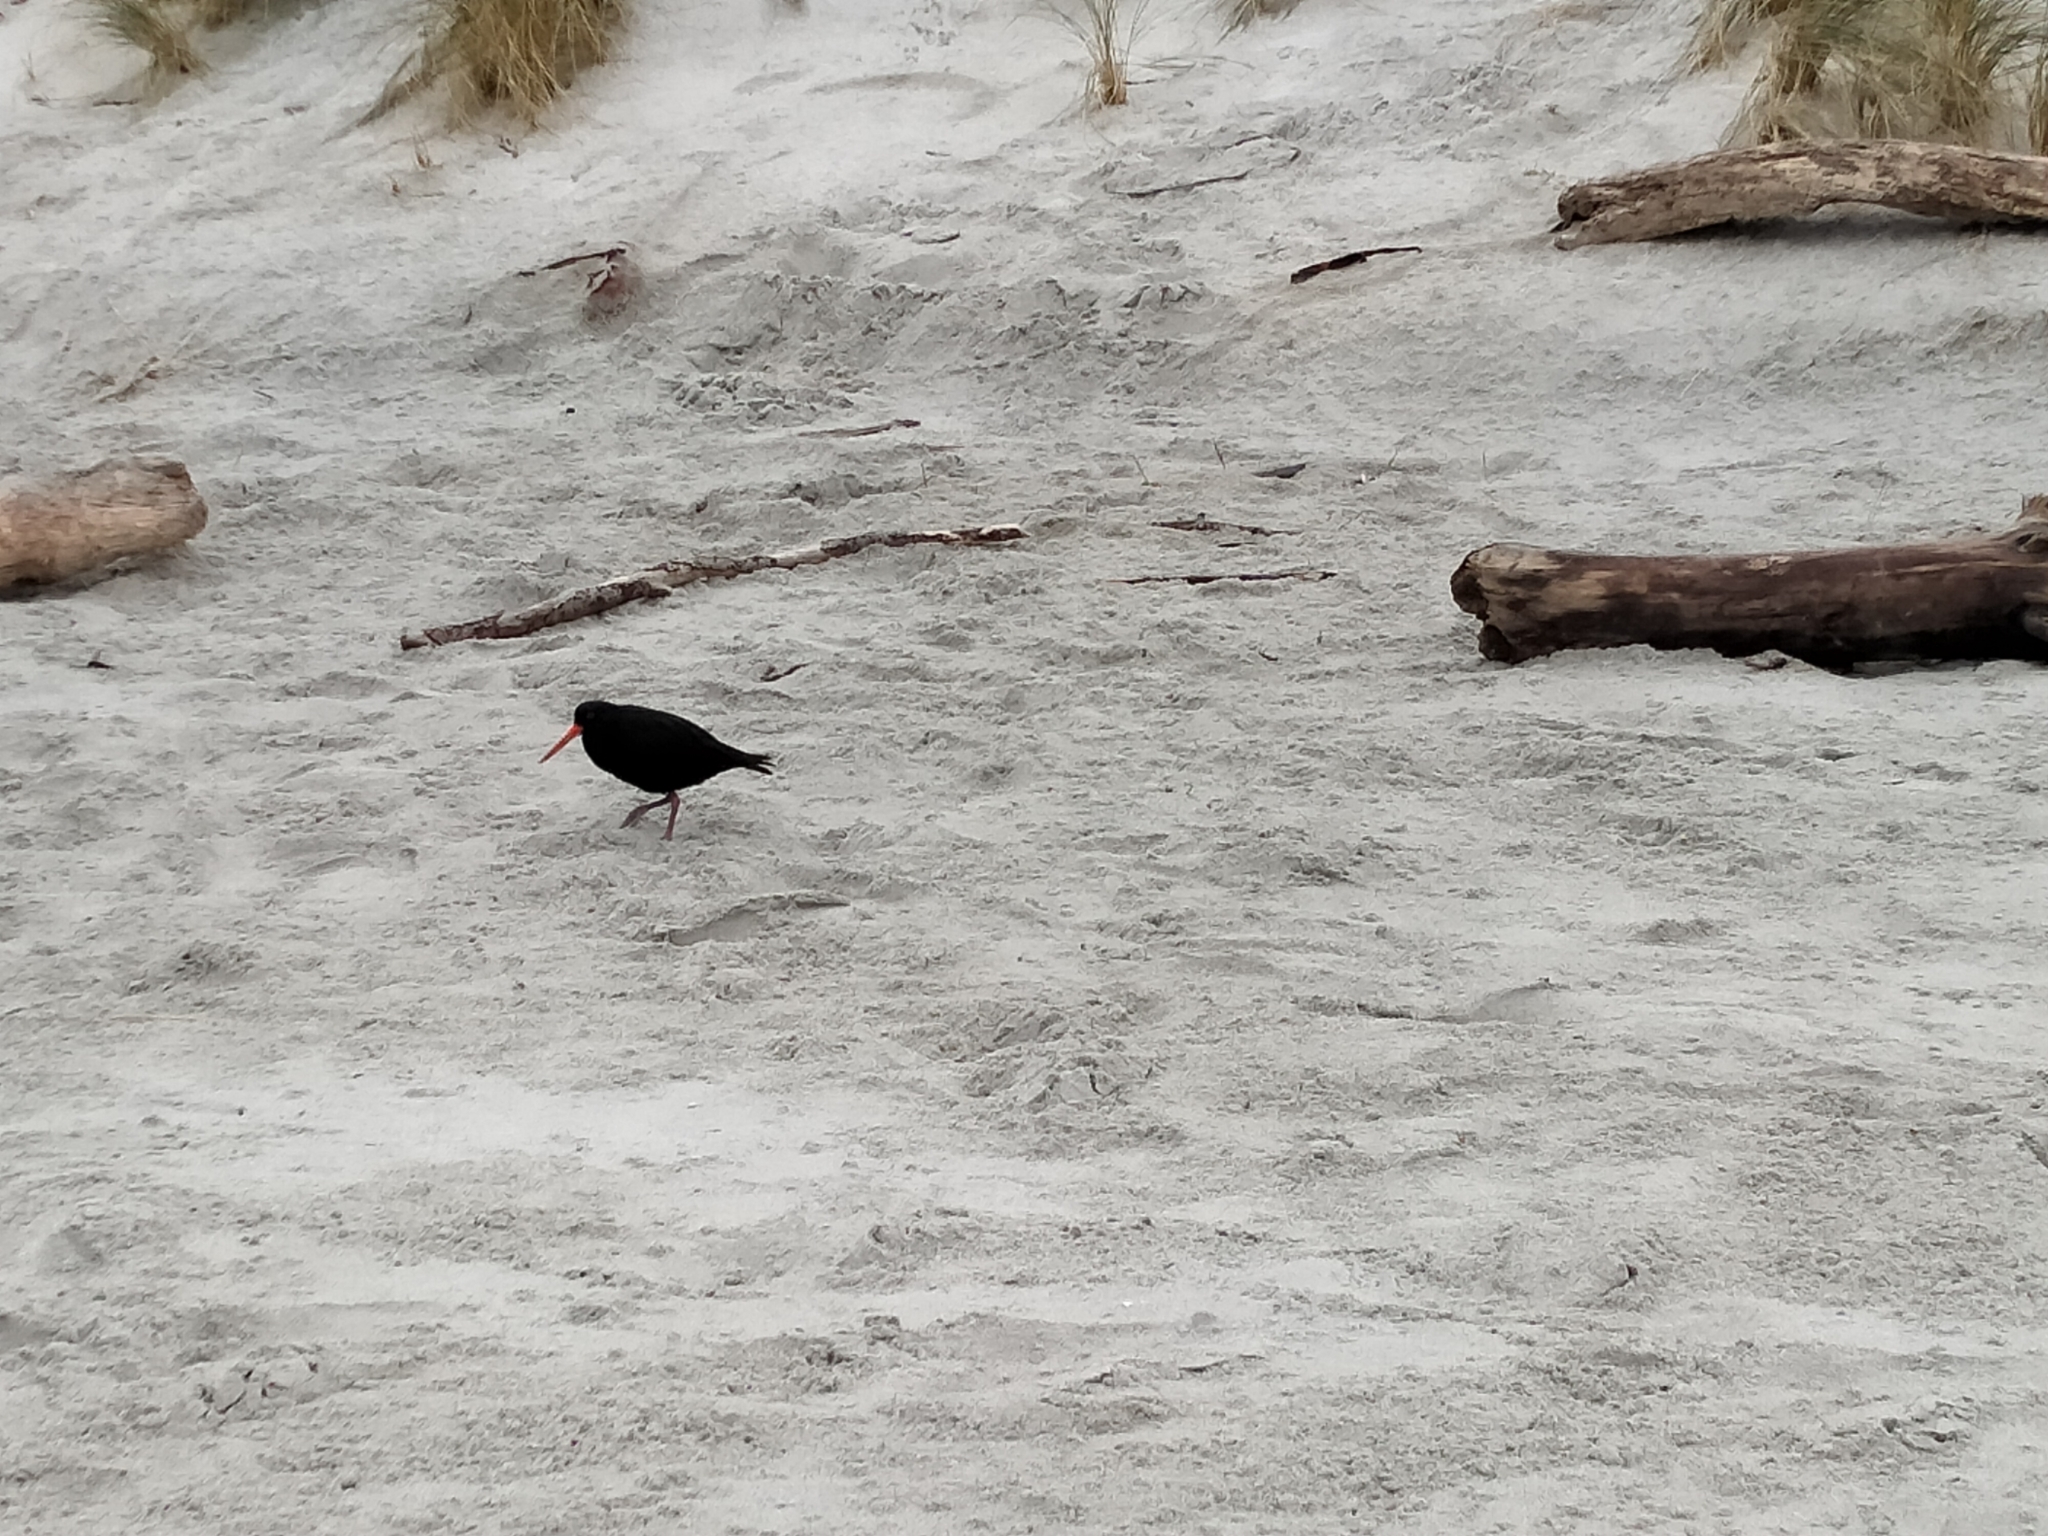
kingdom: Animalia
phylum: Chordata
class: Aves
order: Charadriiformes
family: Haematopodidae
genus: Haematopus
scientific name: Haematopus unicolor
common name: Variable oystercatcher
